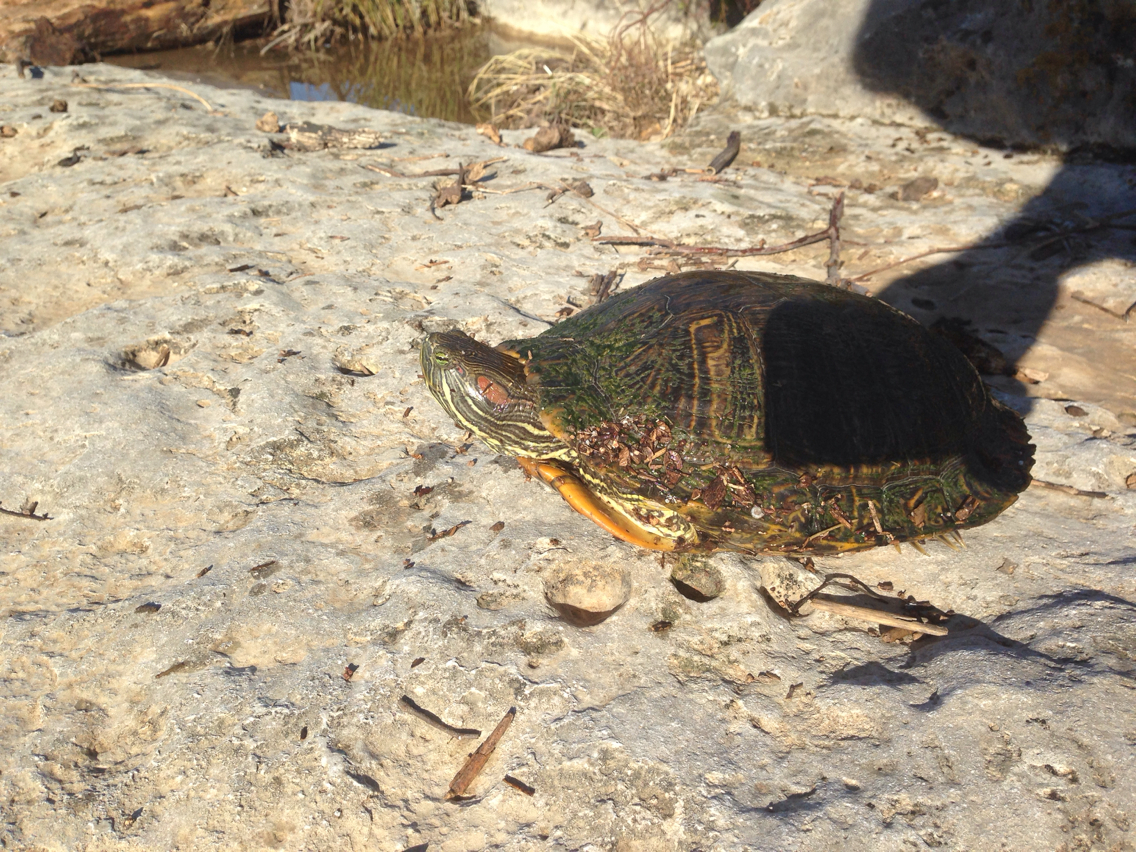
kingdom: Animalia
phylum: Chordata
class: Testudines
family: Emydidae
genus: Trachemys
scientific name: Trachemys scripta
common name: Slider
